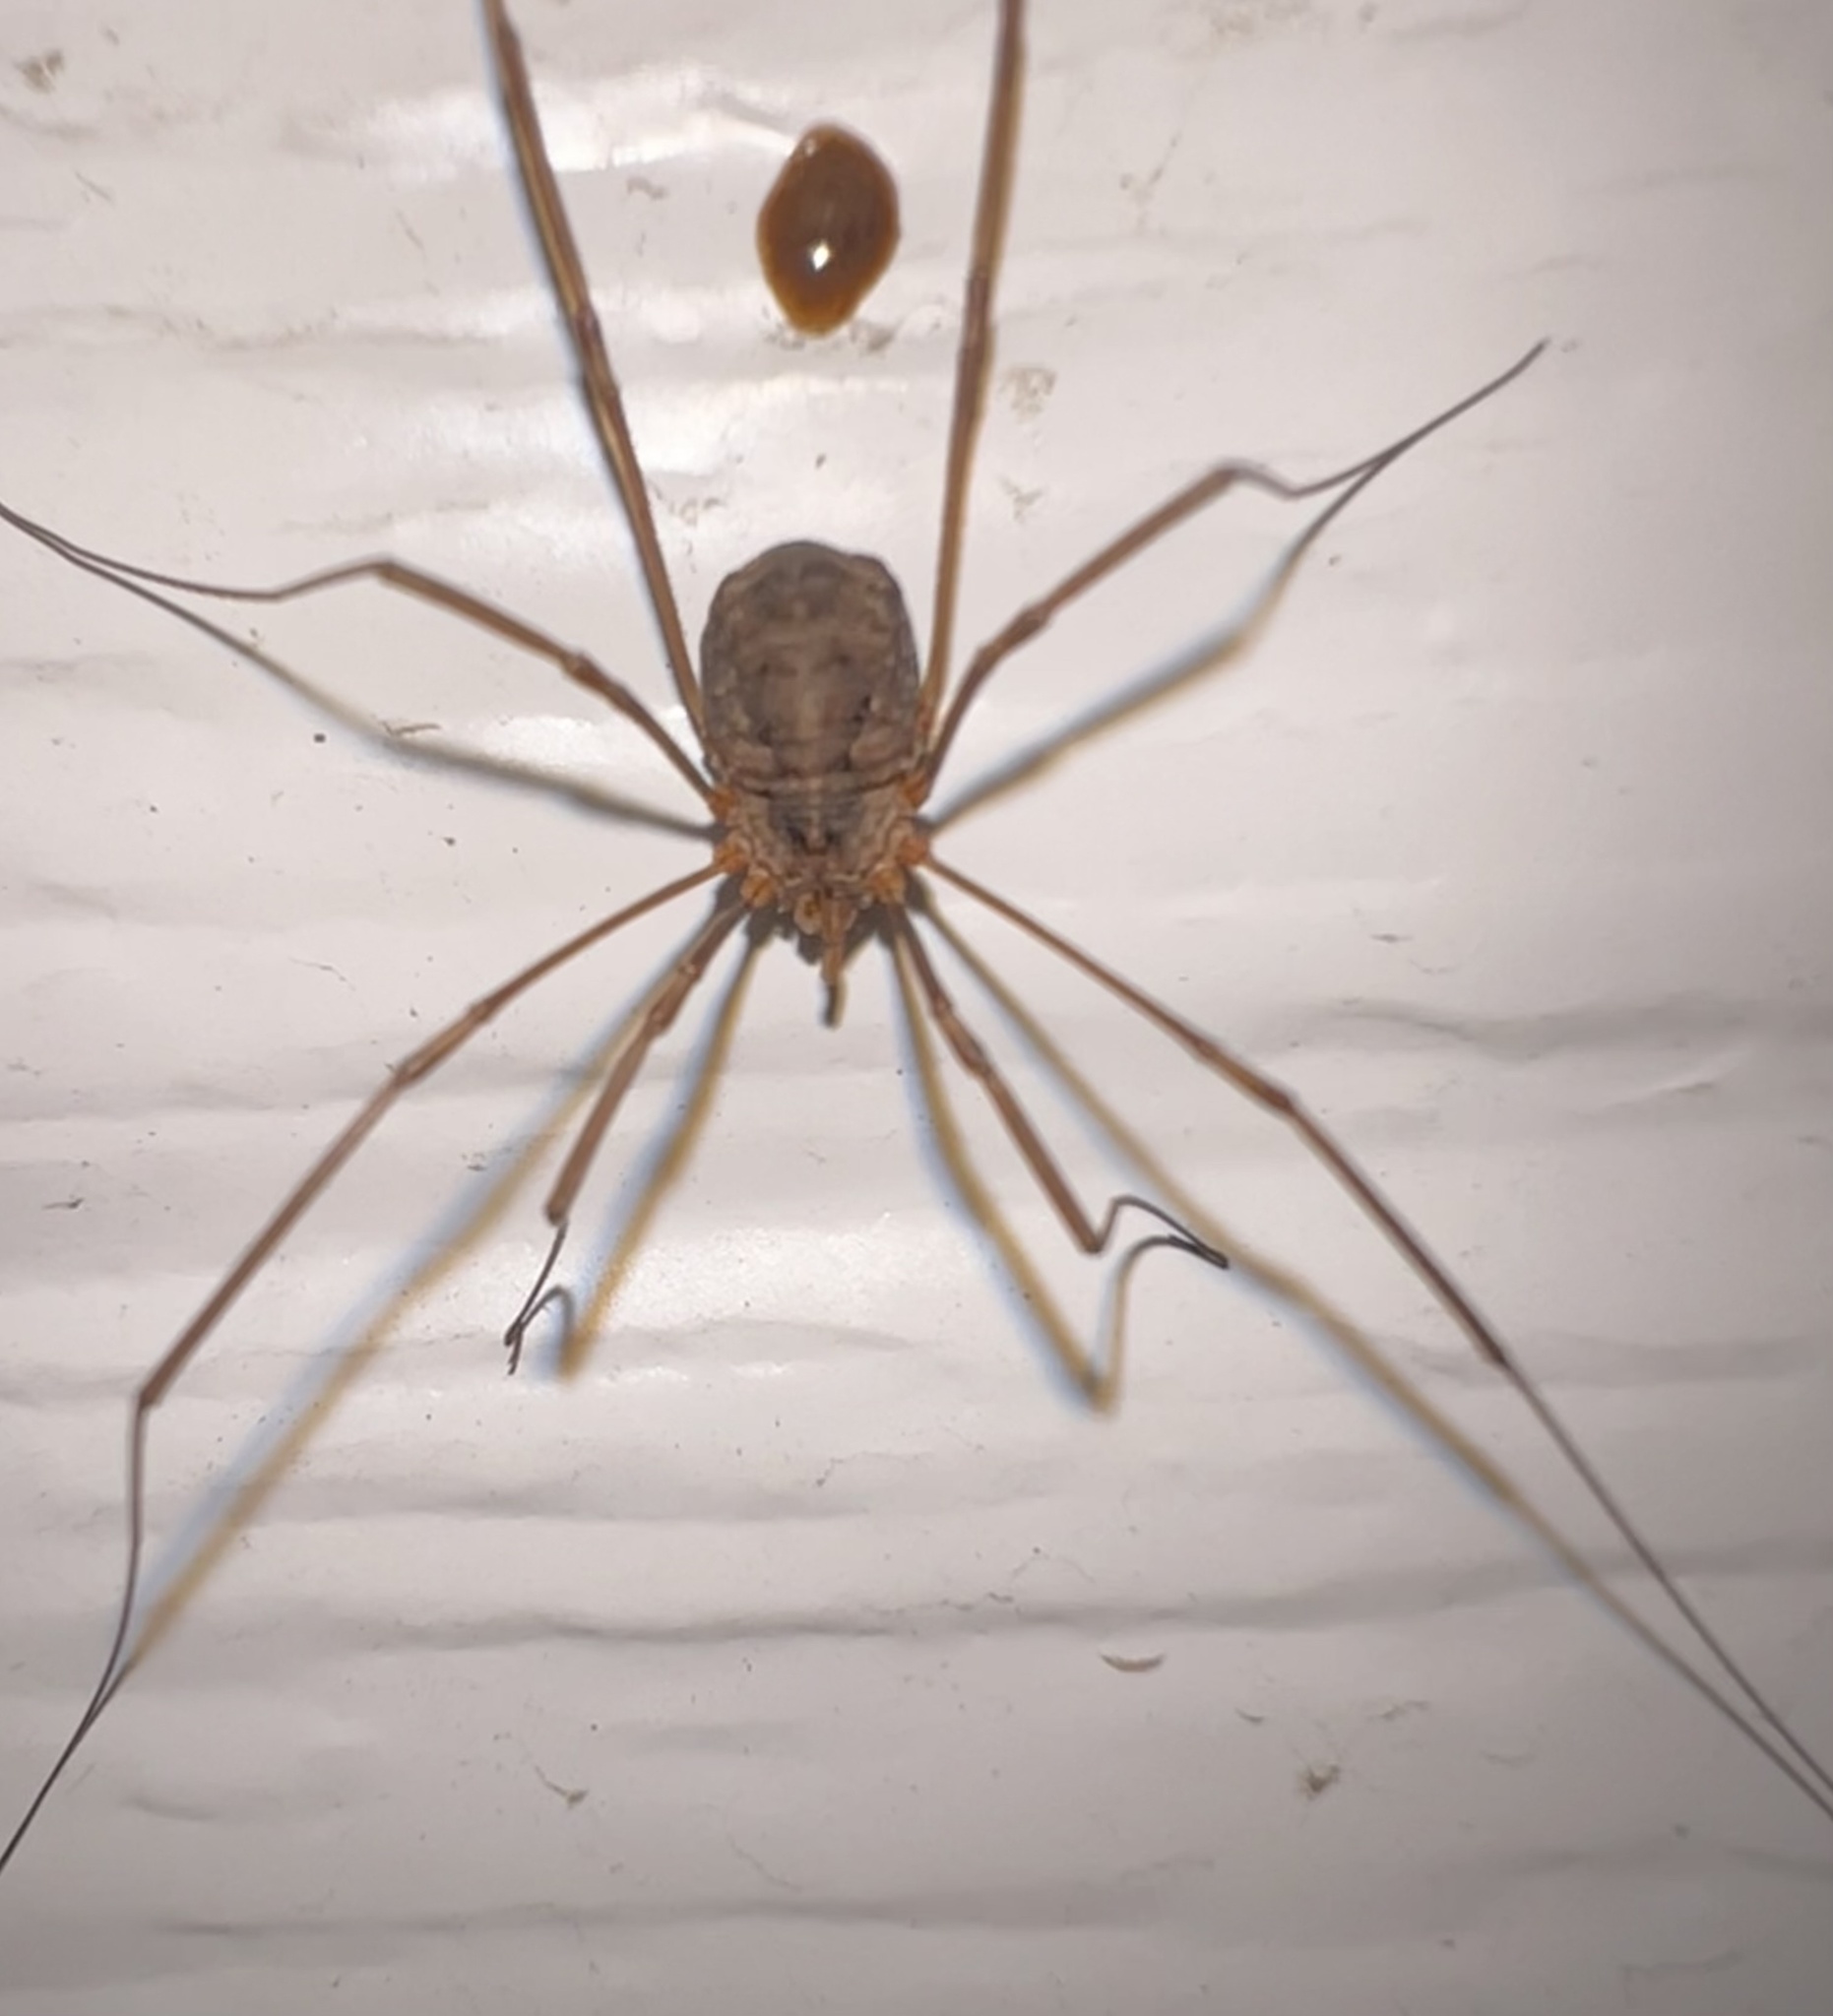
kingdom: Animalia
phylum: Arthropoda
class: Arachnida
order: Opiliones
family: Phalangiidae
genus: Phalangium
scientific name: Phalangium opilio
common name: Daddy longleg
